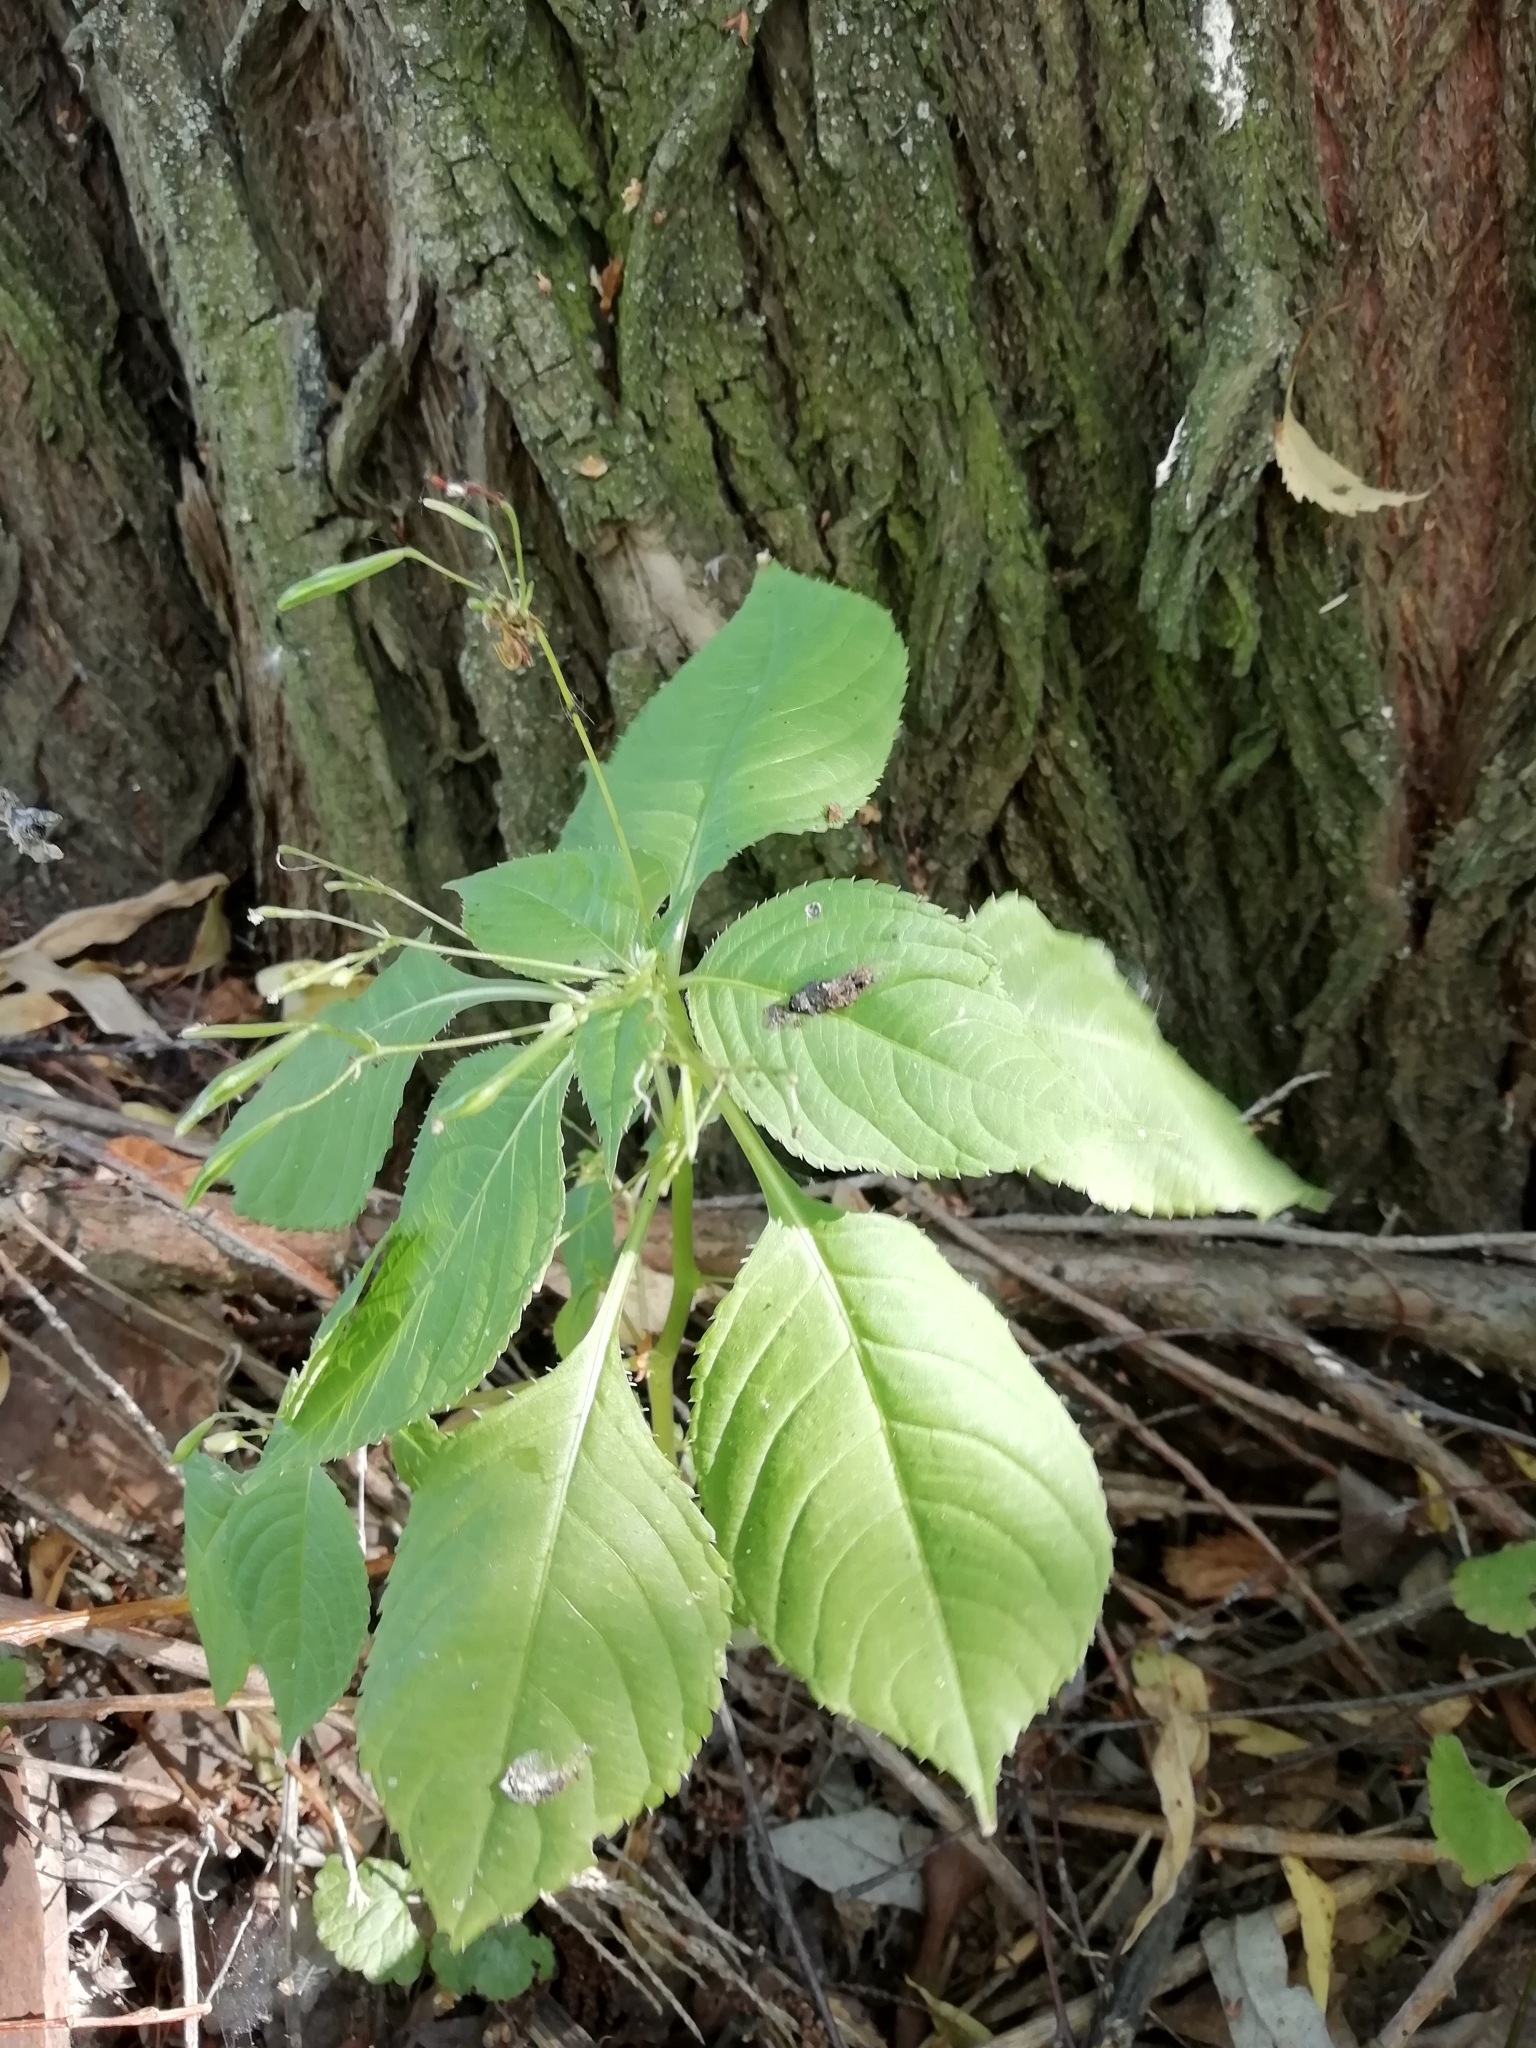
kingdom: Plantae
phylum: Tracheophyta
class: Magnoliopsida
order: Ericales
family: Balsaminaceae
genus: Impatiens
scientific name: Impatiens parviflora
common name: Small balsam
